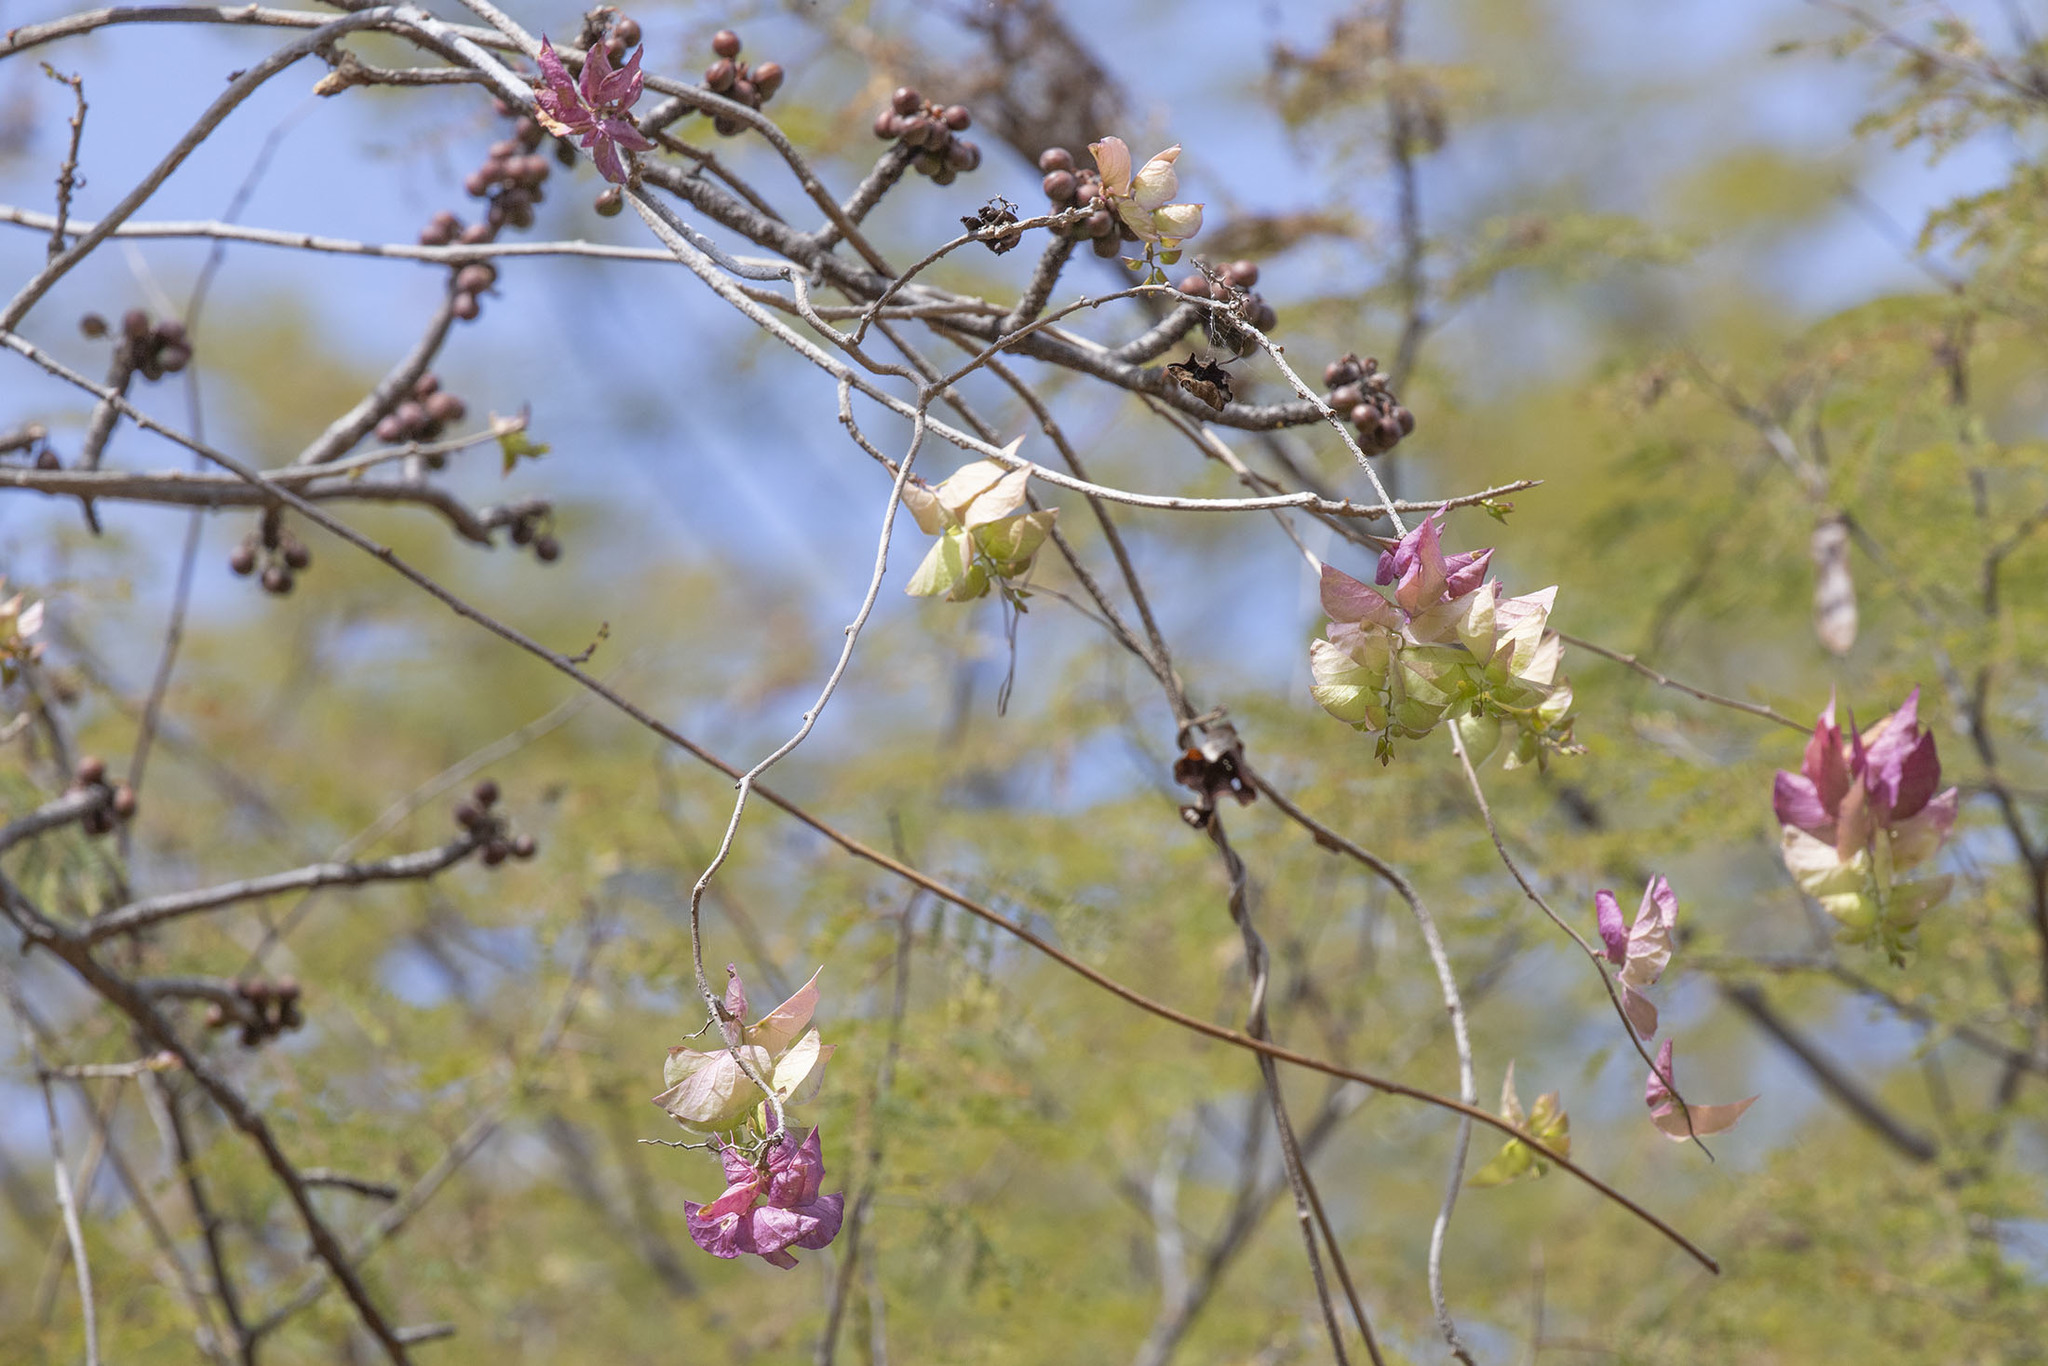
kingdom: Plantae
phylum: Tracheophyta
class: Magnoliopsida
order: Solanales
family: Convolvulaceae
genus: Ipomoea
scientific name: Ipomoea bracteata
